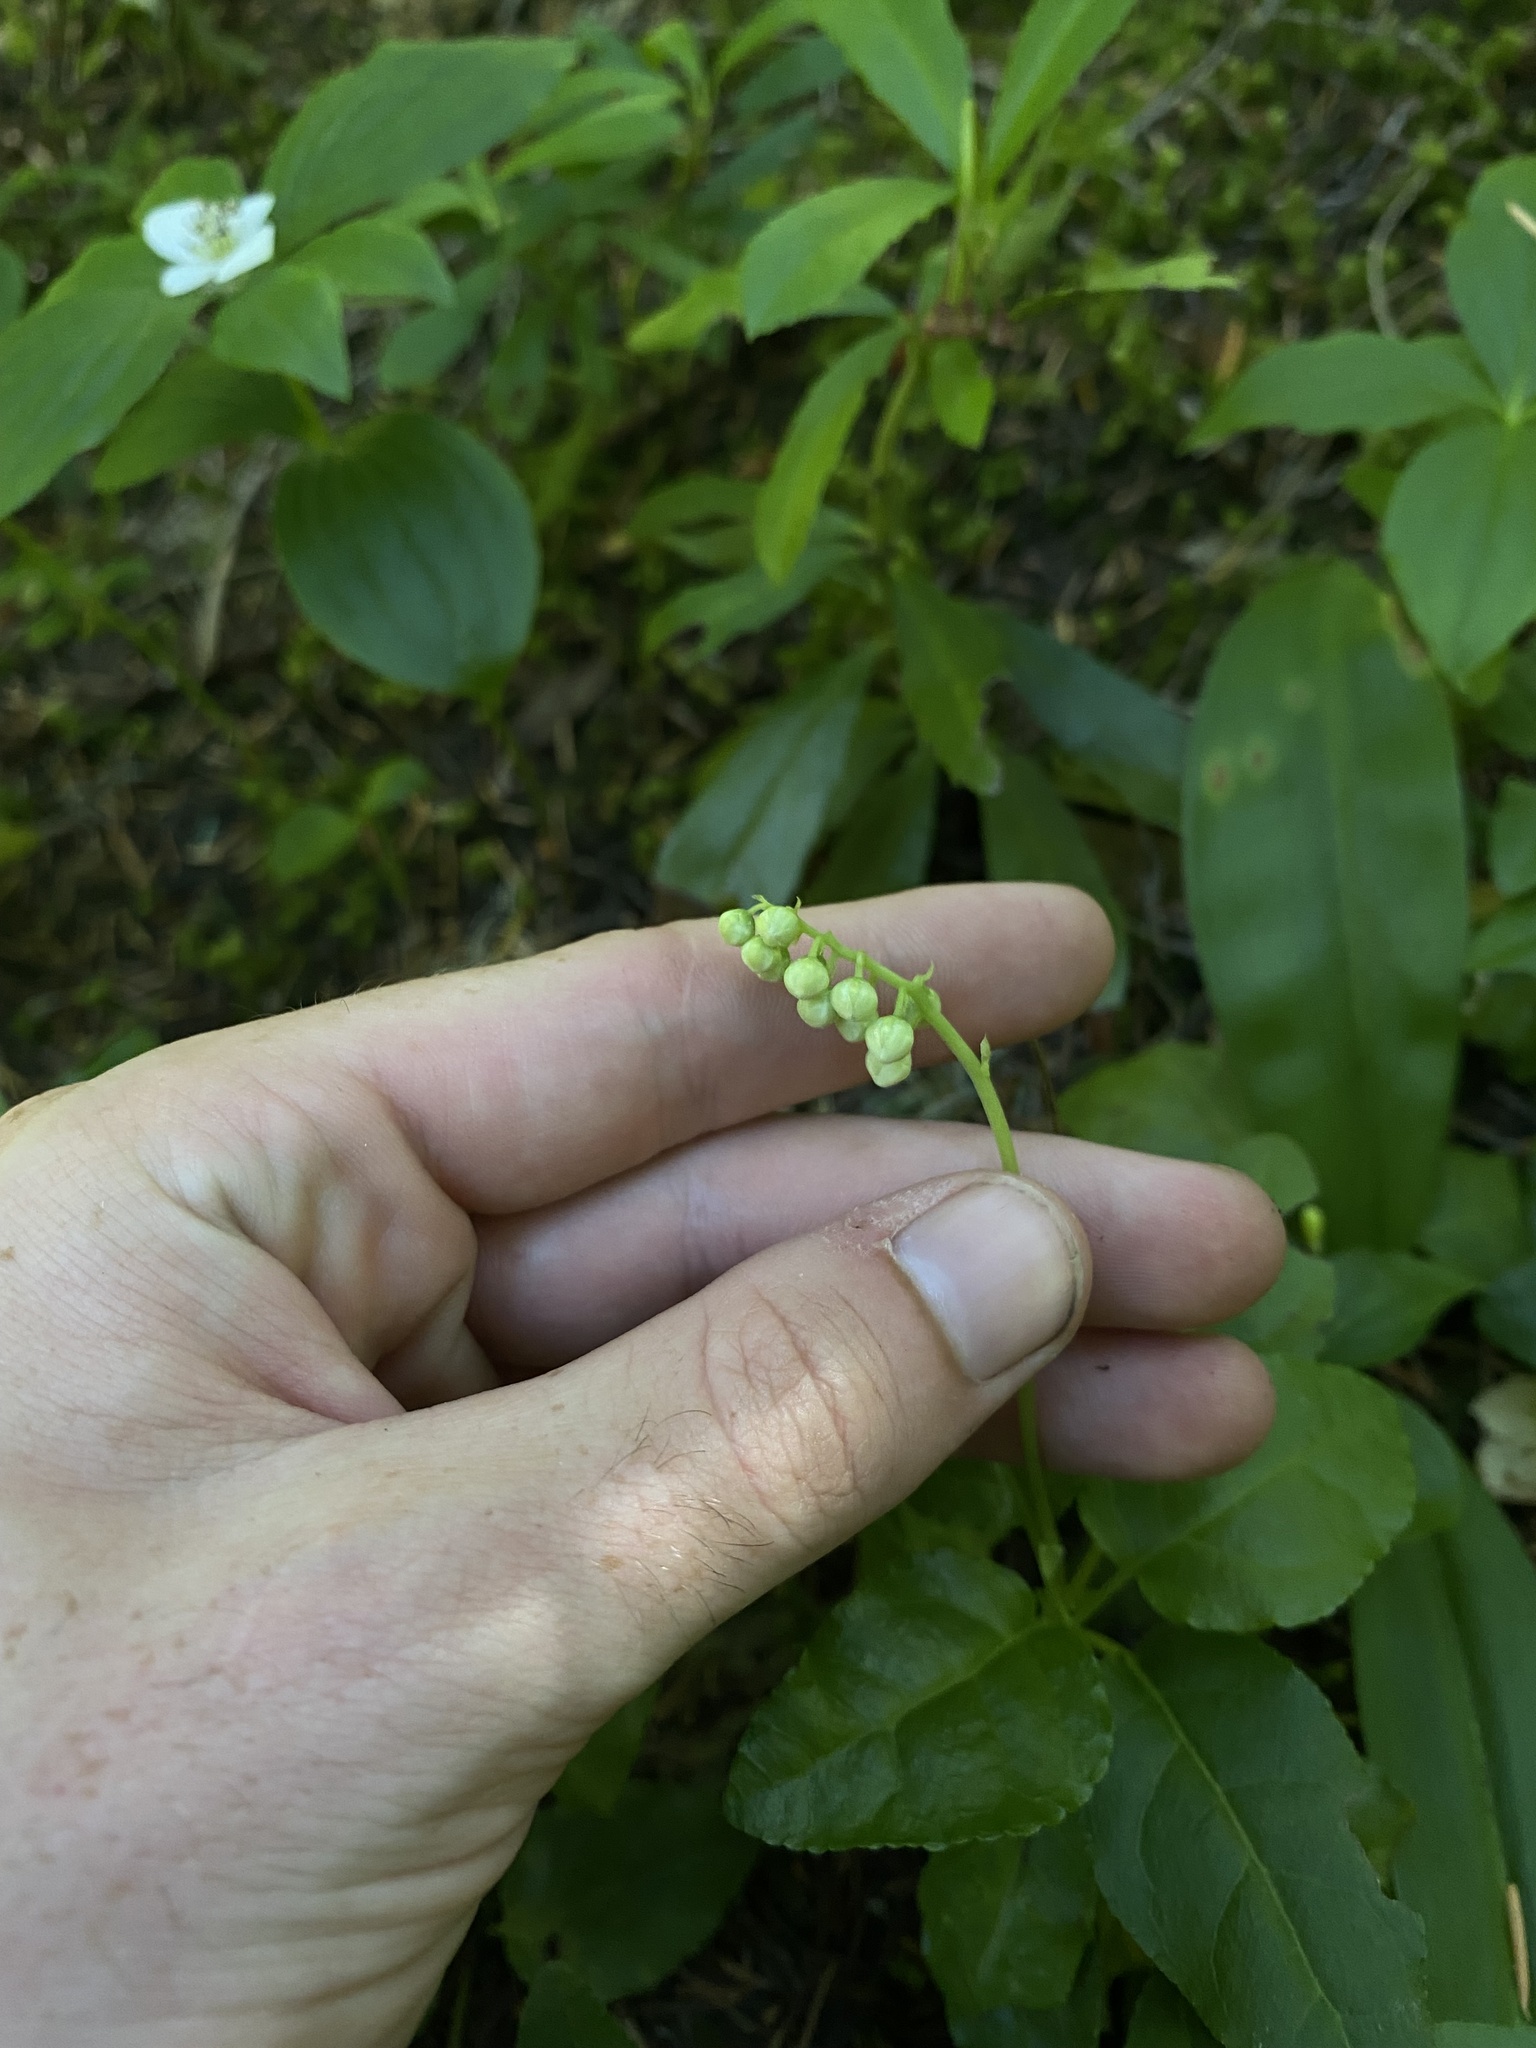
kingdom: Plantae
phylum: Tracheophyta
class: Magnoliopsida
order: Ericales
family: Ericaceae
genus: Orthilia
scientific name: Orthilia secunda
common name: One-sided orthilia
